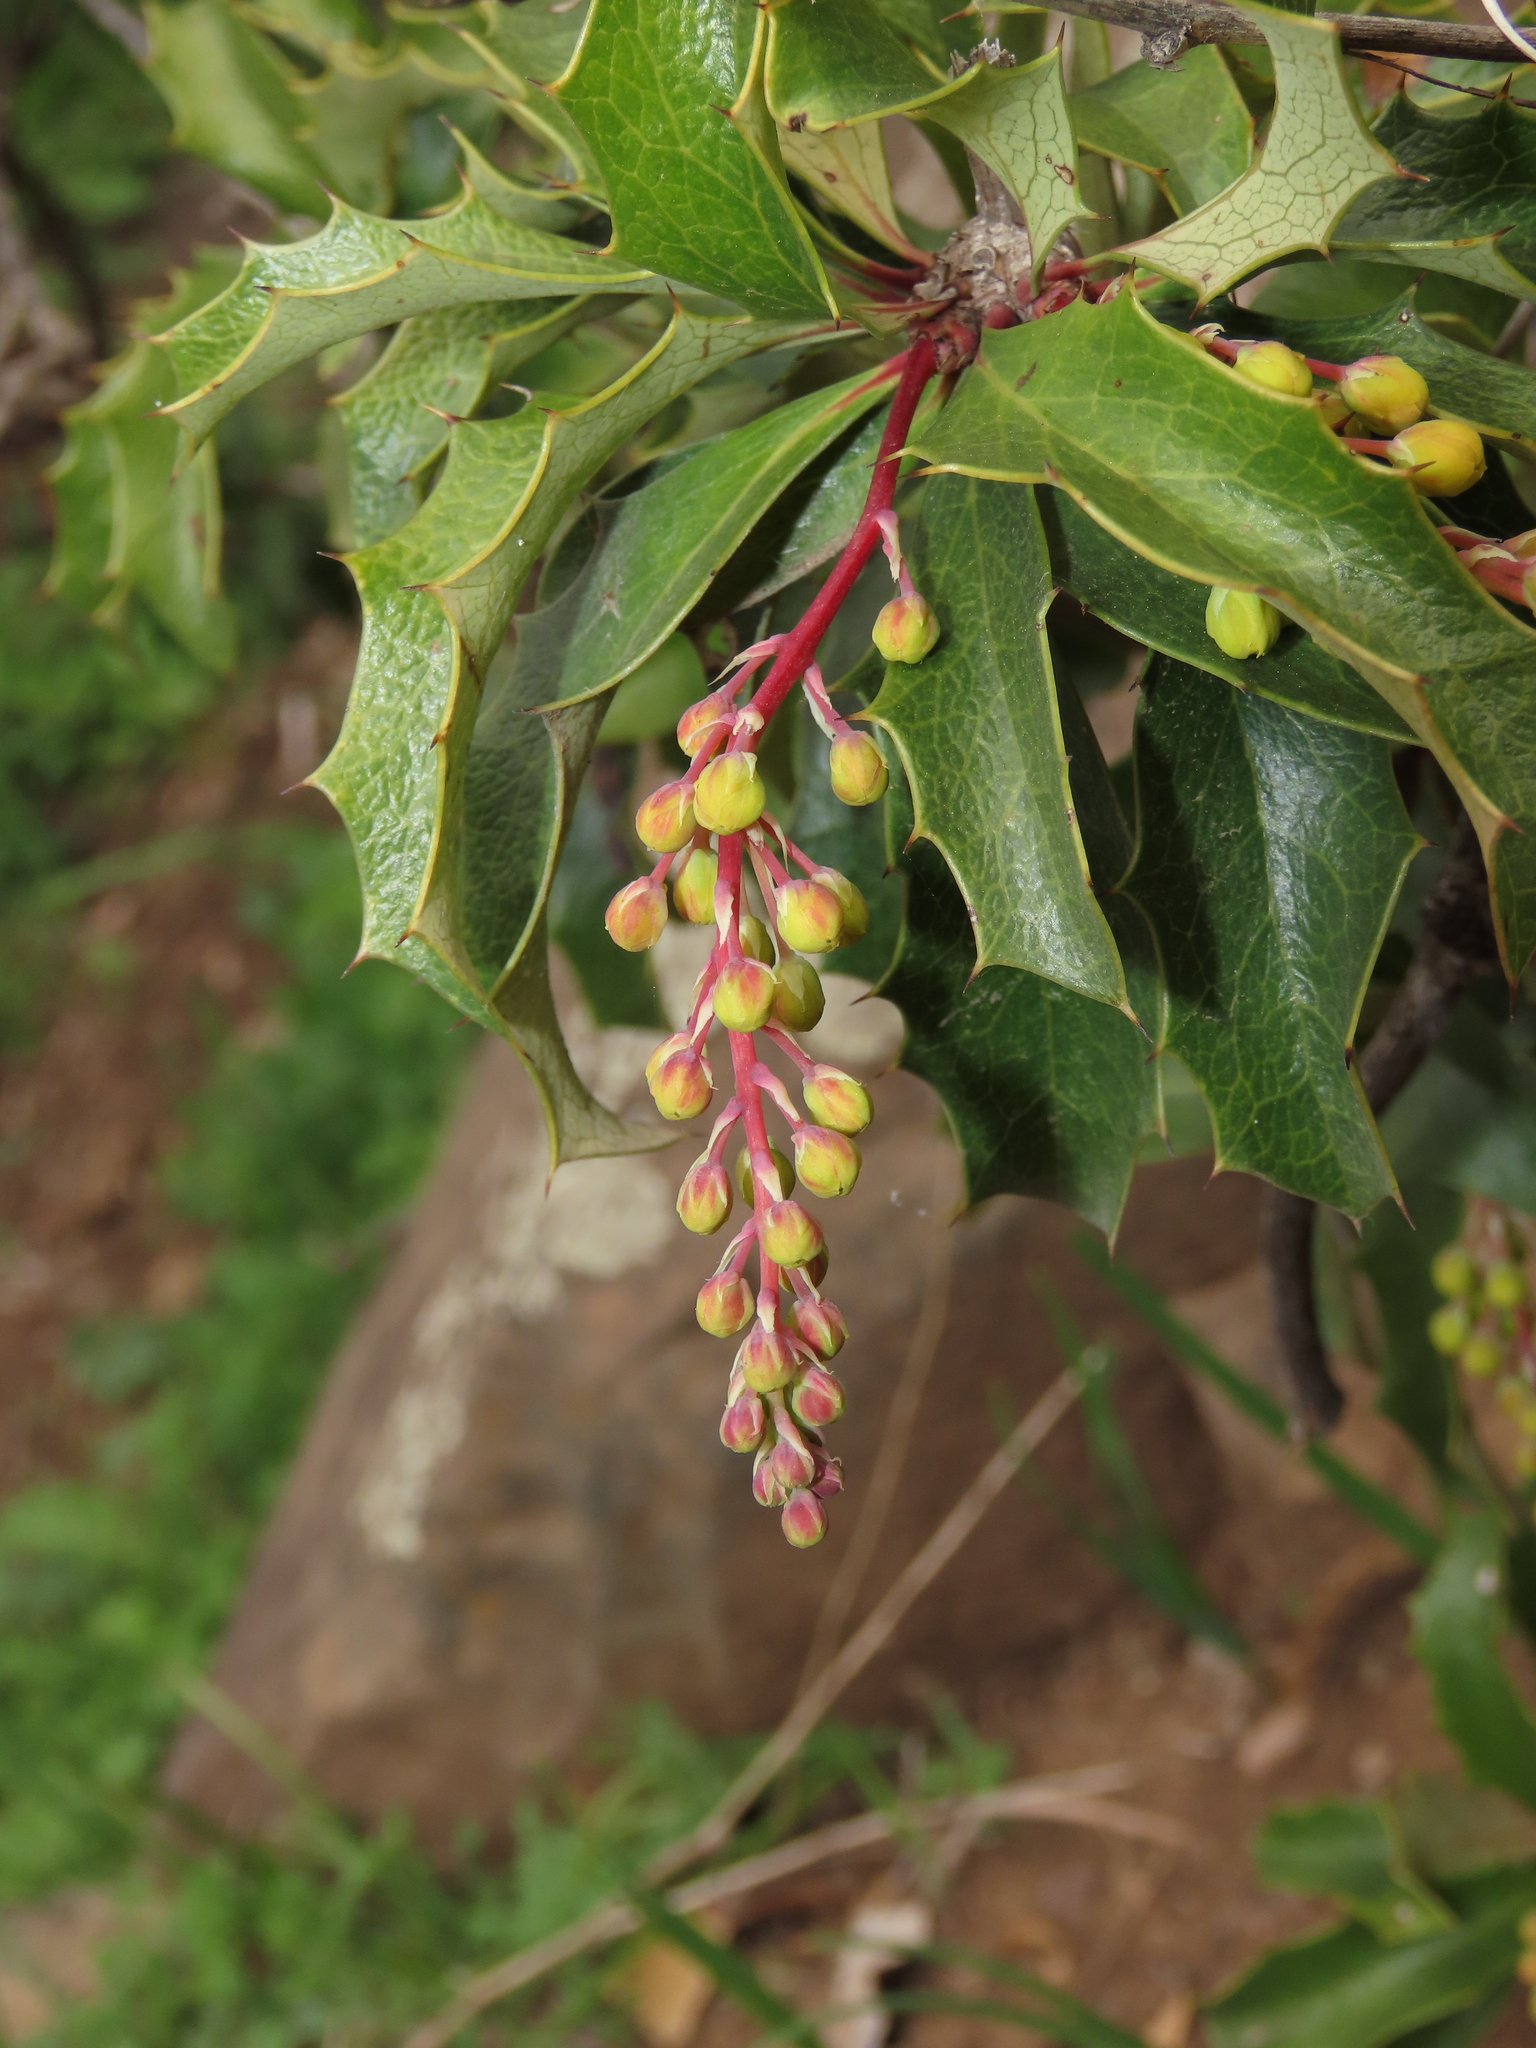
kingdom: Plantae
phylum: Tracheophyta
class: Magnoliopsida
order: Ranunculales
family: Berberidaceae
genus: Berberis
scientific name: Berberis chilensis
